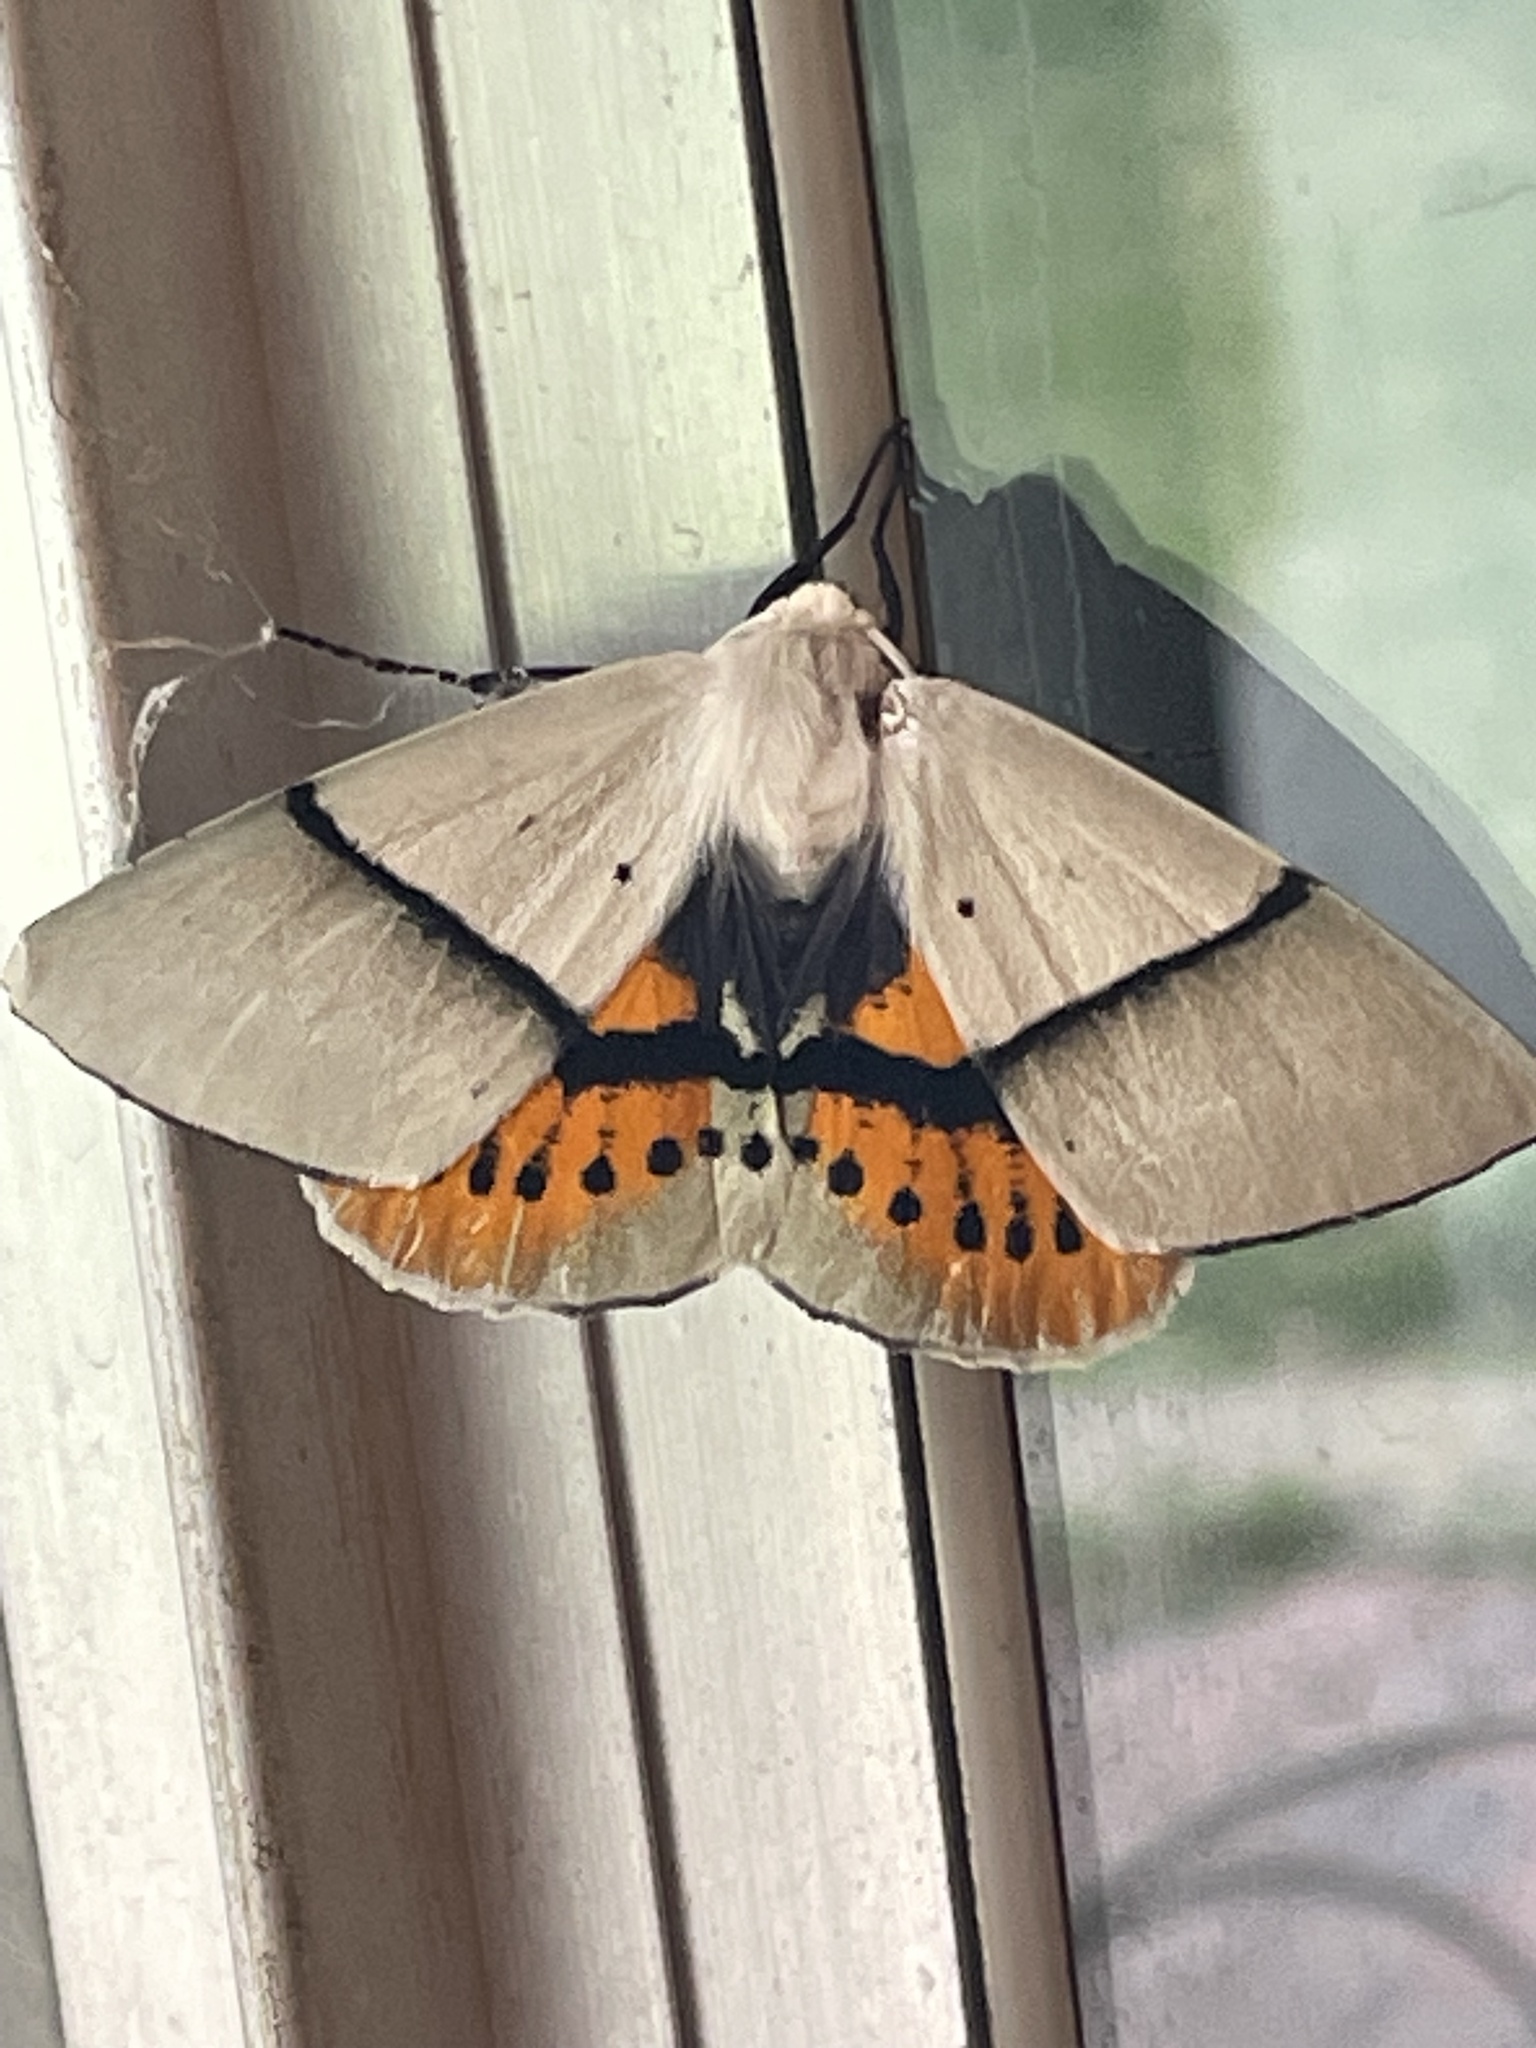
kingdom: Animalia
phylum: Arthropoda
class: Insecta
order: Lepidoptera
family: Geometridae
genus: Gastrophora
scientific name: Gastrophora henricaria
